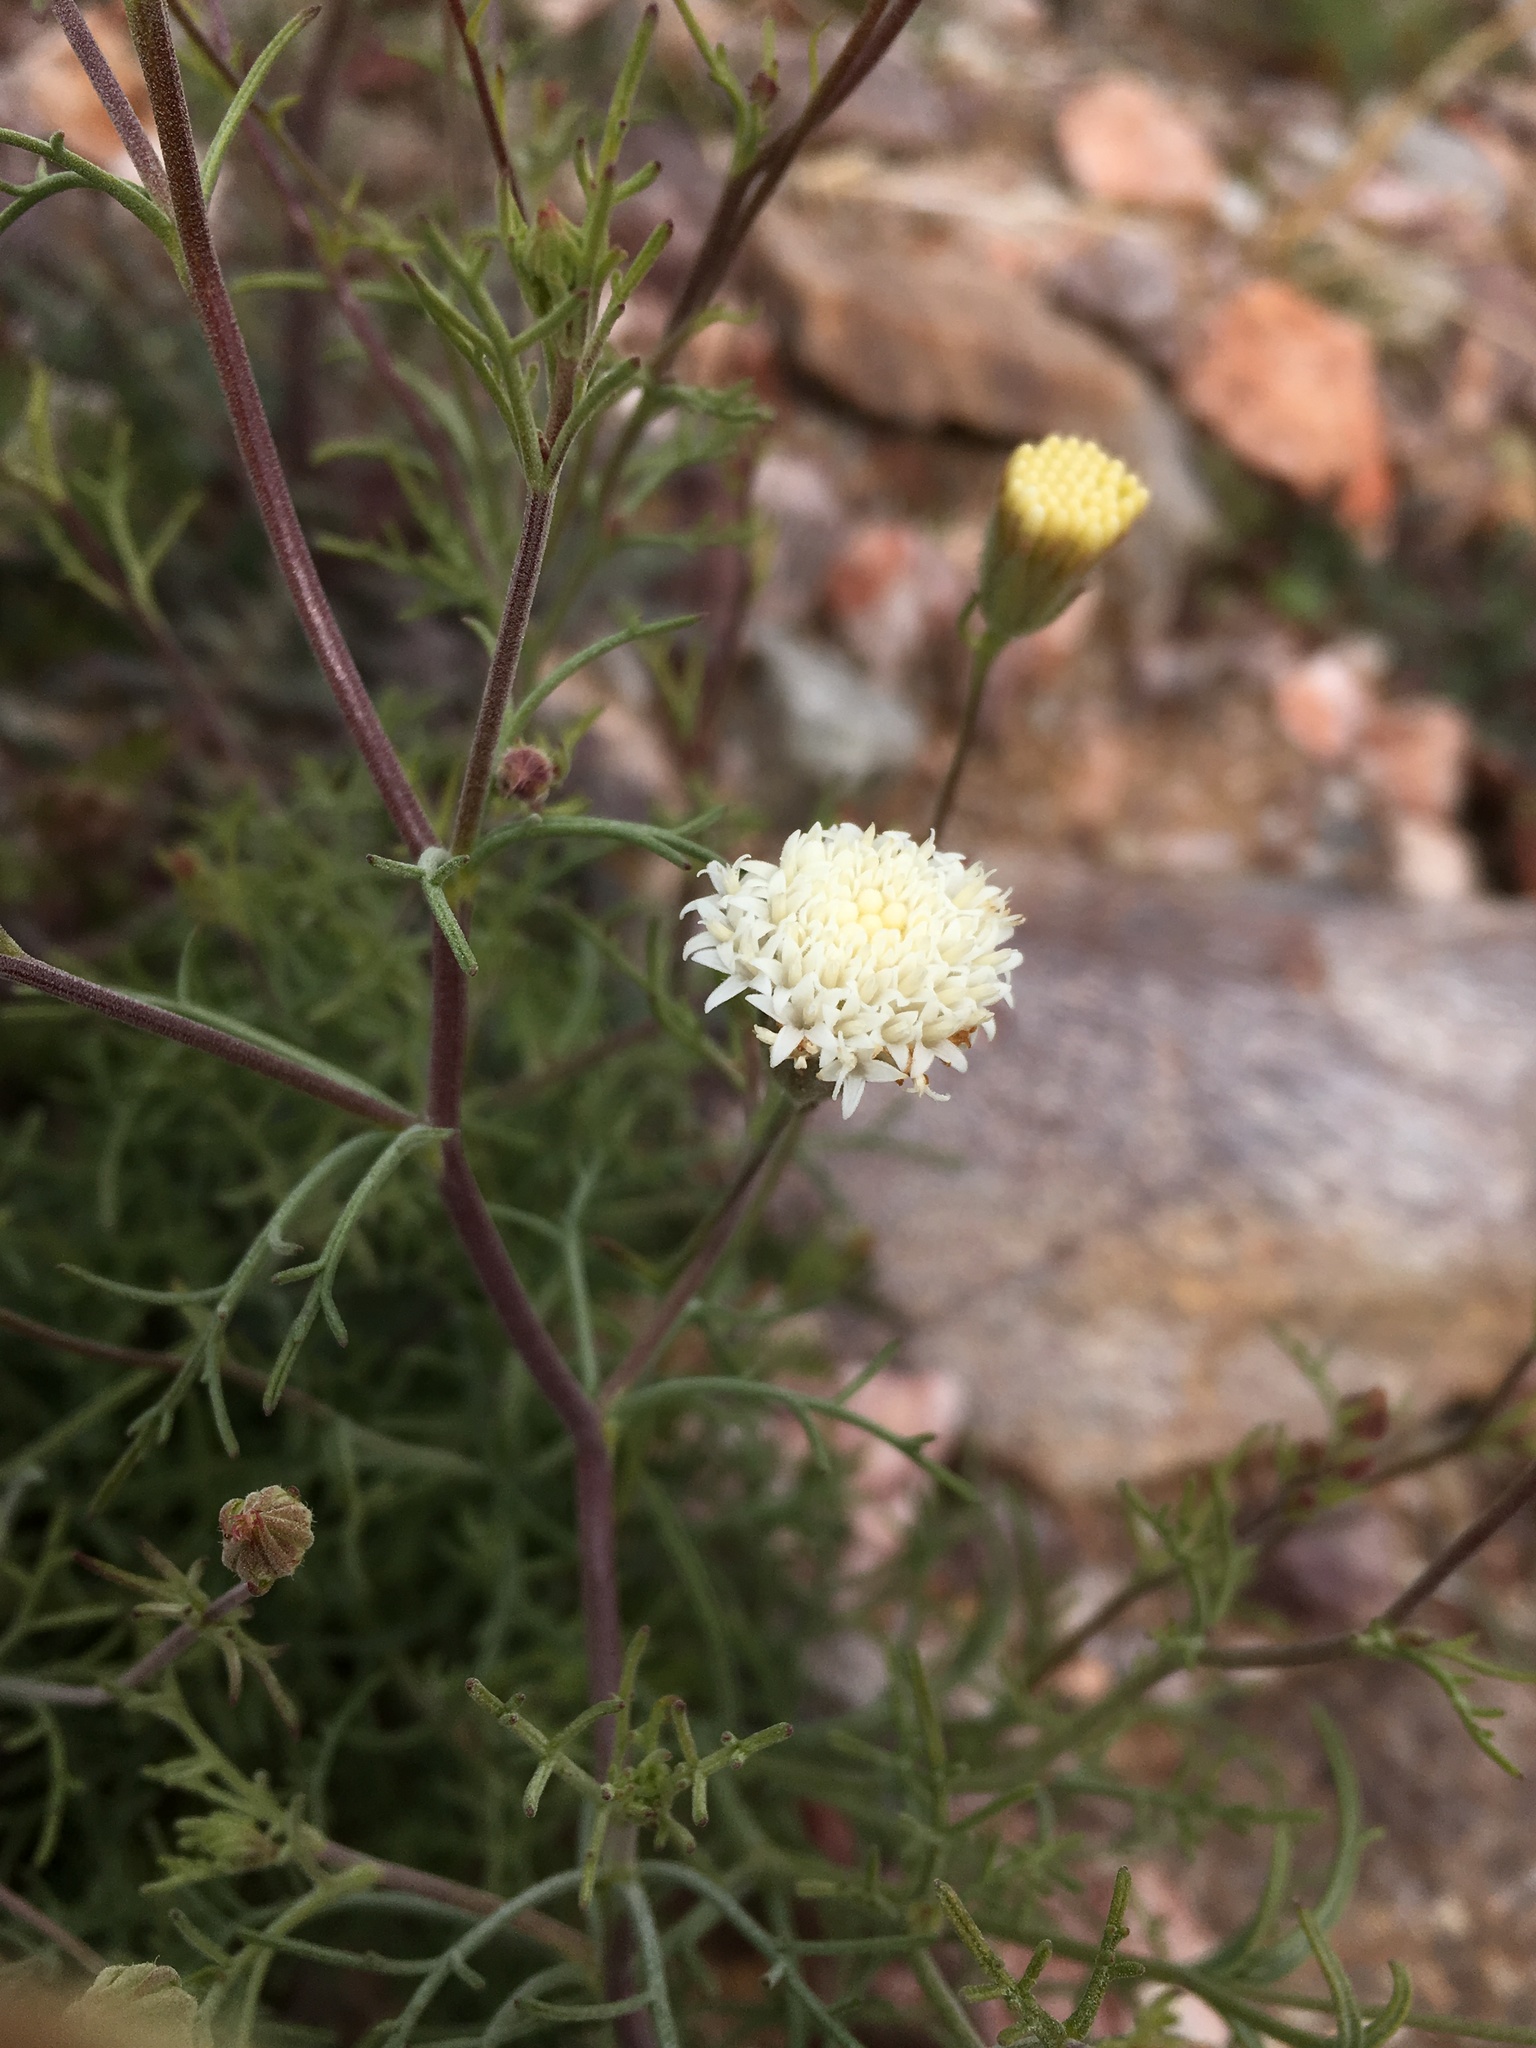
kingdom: Plantae
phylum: Tracheophyta
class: Magnoliopsida
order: Asterales
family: Asteraceae
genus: Chaenactis
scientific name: Chaenactis carphoclinia
